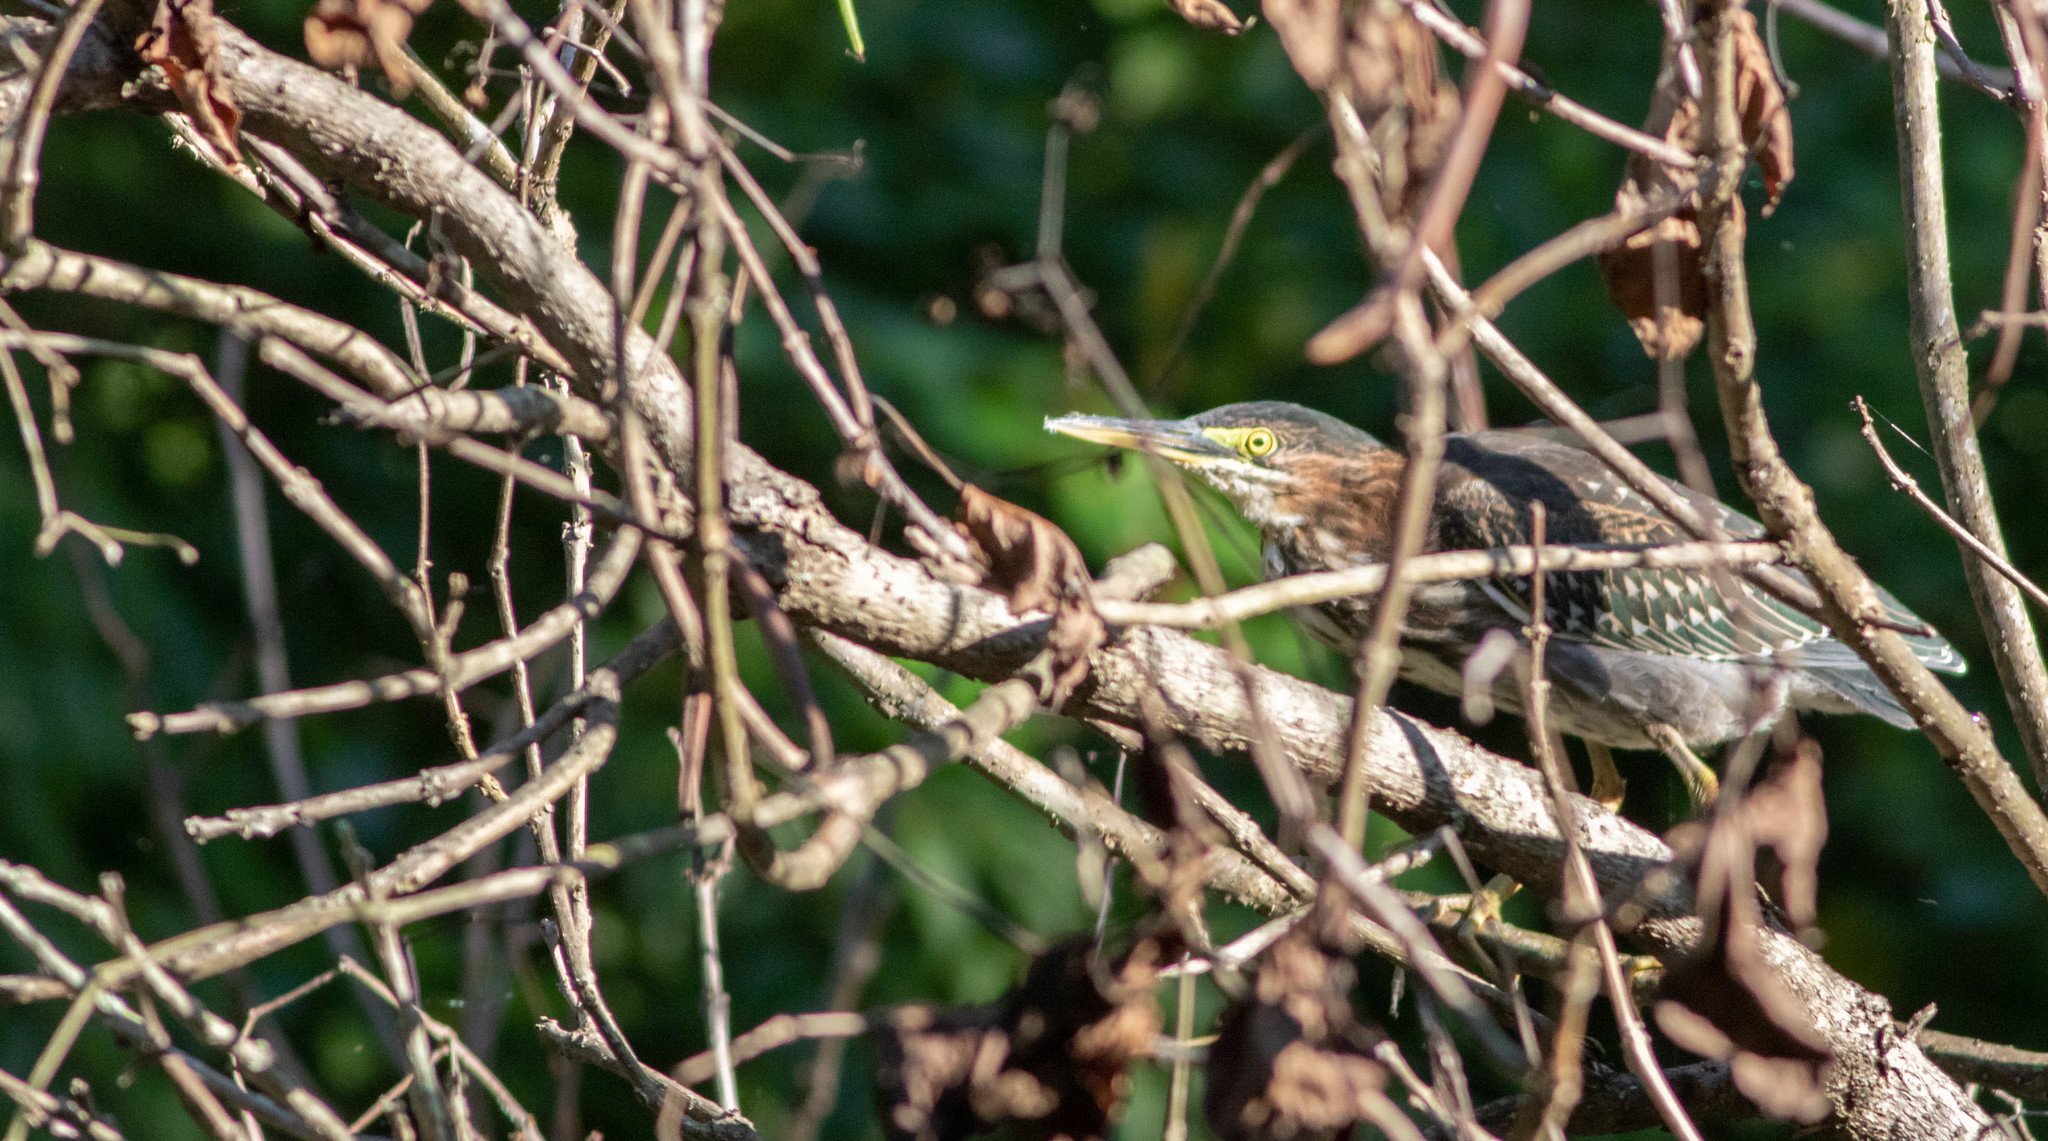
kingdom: Animalia
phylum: Chordata
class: Aves
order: Pelecaniformes
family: Ardeidae
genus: Butorides
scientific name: Butorides virescens
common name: Green heron
